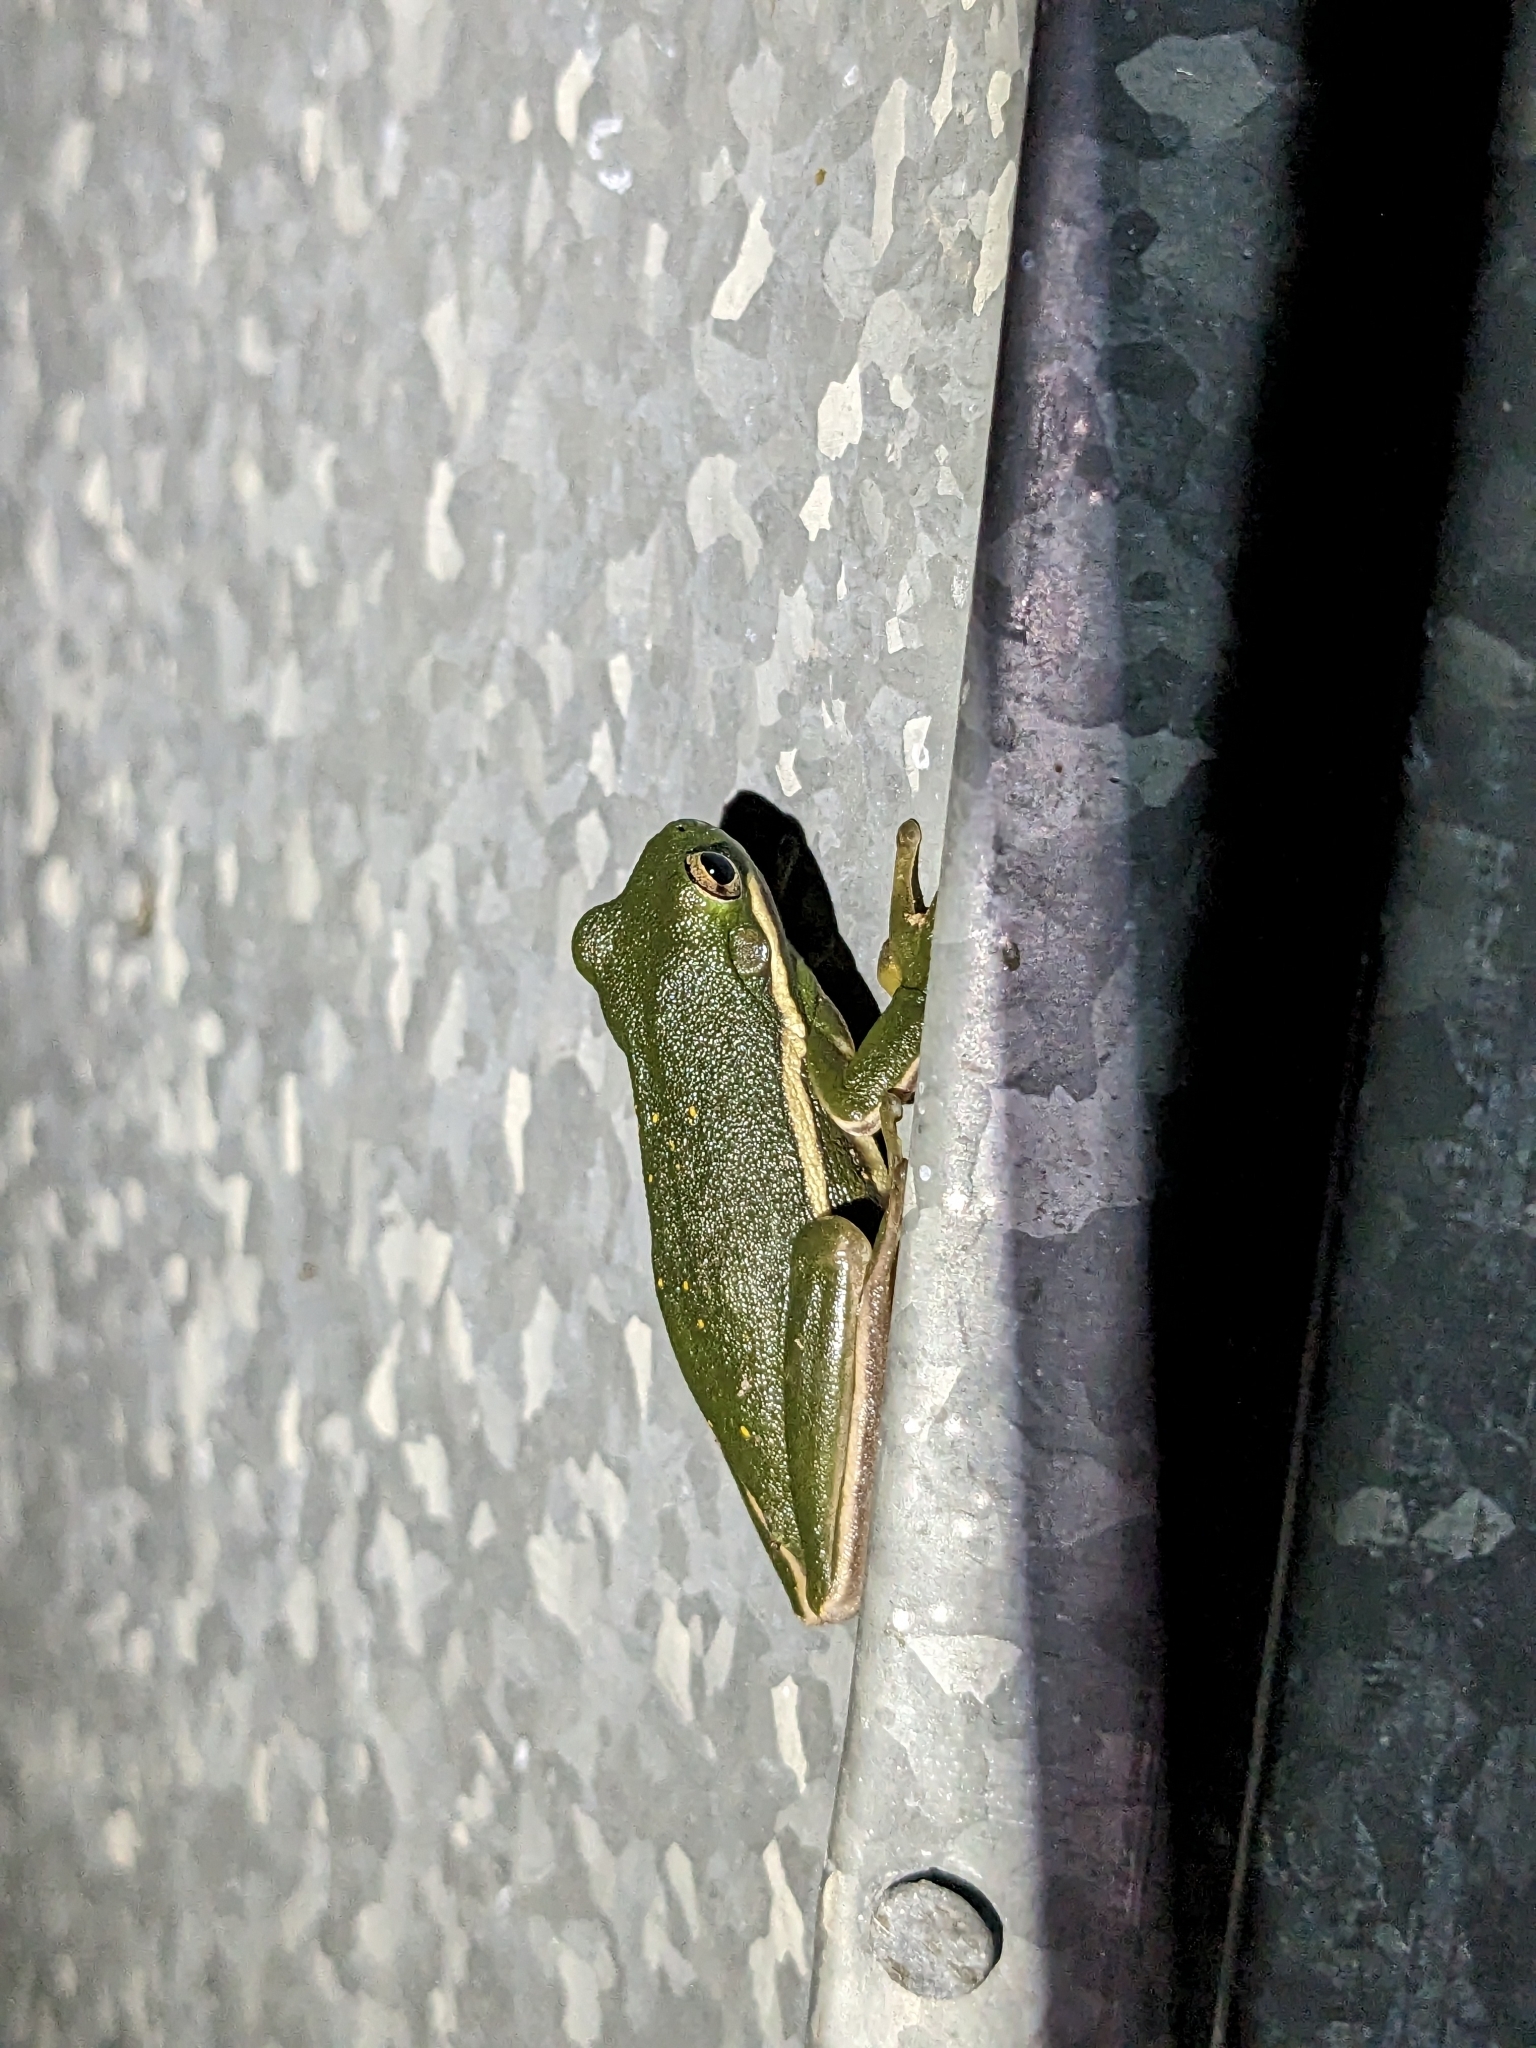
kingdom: Animalia
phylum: Chordata
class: Amphibia
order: Anura
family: Hylidae
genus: Dryophytes
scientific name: Dryophytes cinereus
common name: Green treefrog
